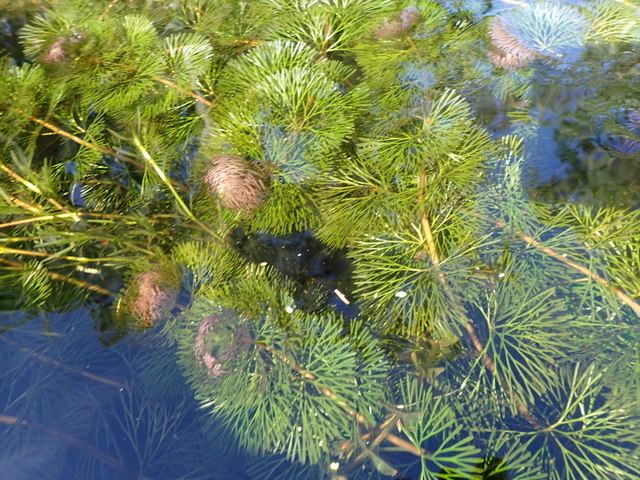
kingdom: Plantae
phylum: Tracheophyta
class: Magnoliopsida
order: Nymphaeales
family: Cabombaceae
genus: Cabomba
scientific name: Cabomba caroliniana
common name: Fanwort
